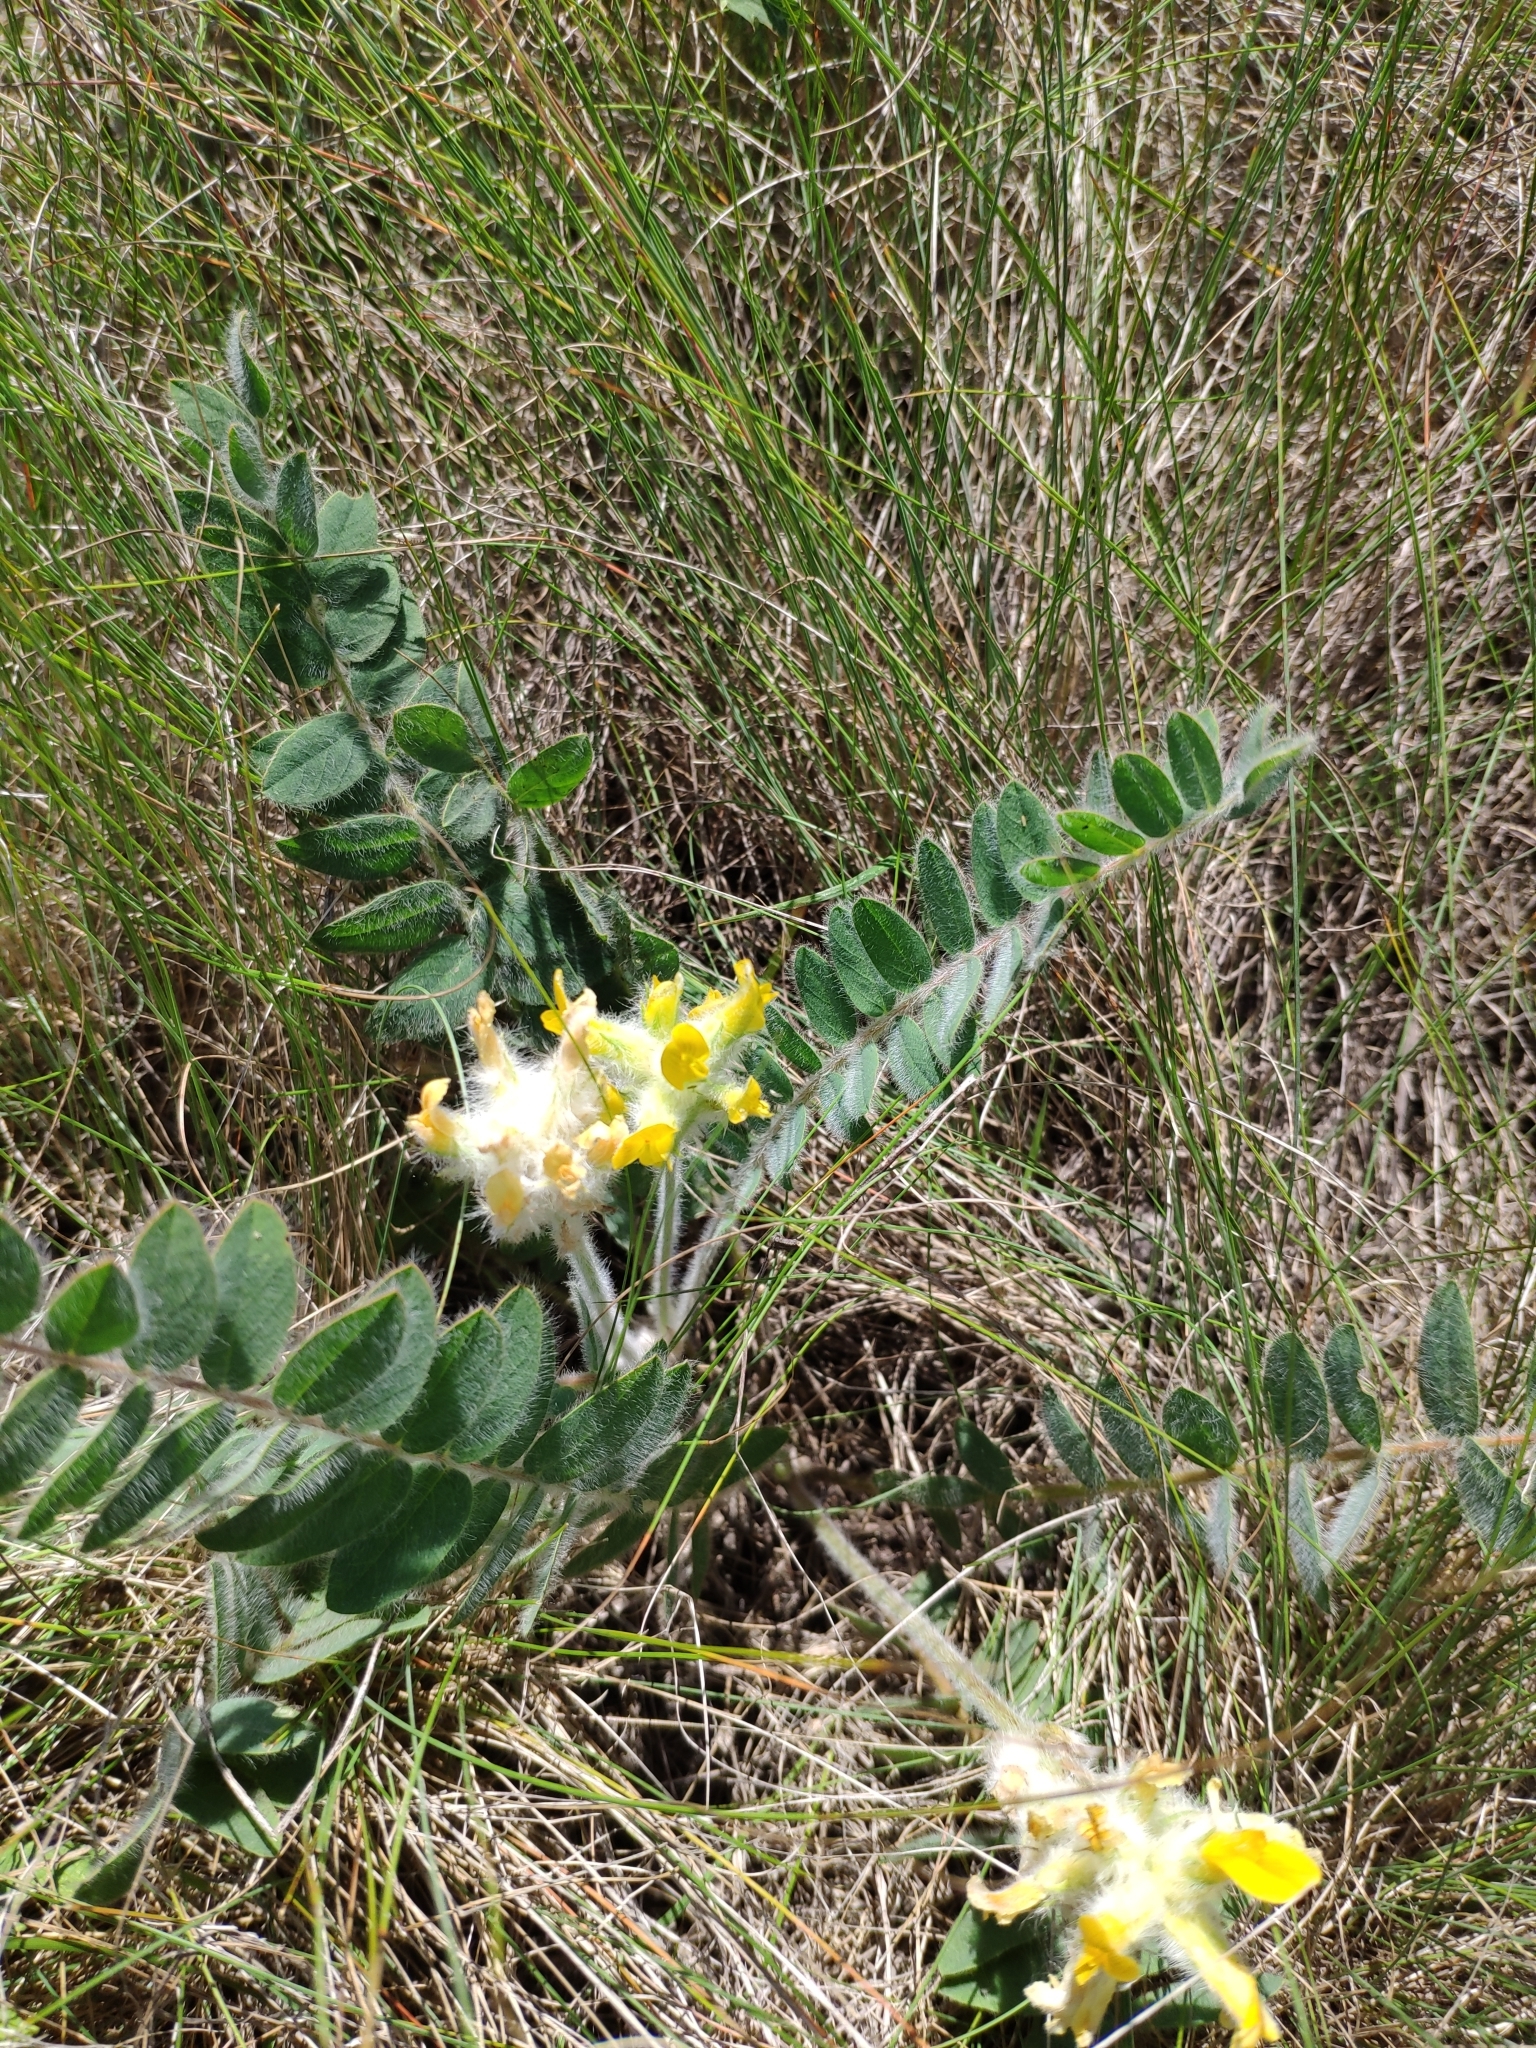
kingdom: Plantae
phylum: Tracheophyta
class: Magnoliopsida
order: Fabales
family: Fabaceae
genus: Astragalus
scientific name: Astragalus dasyanthus
